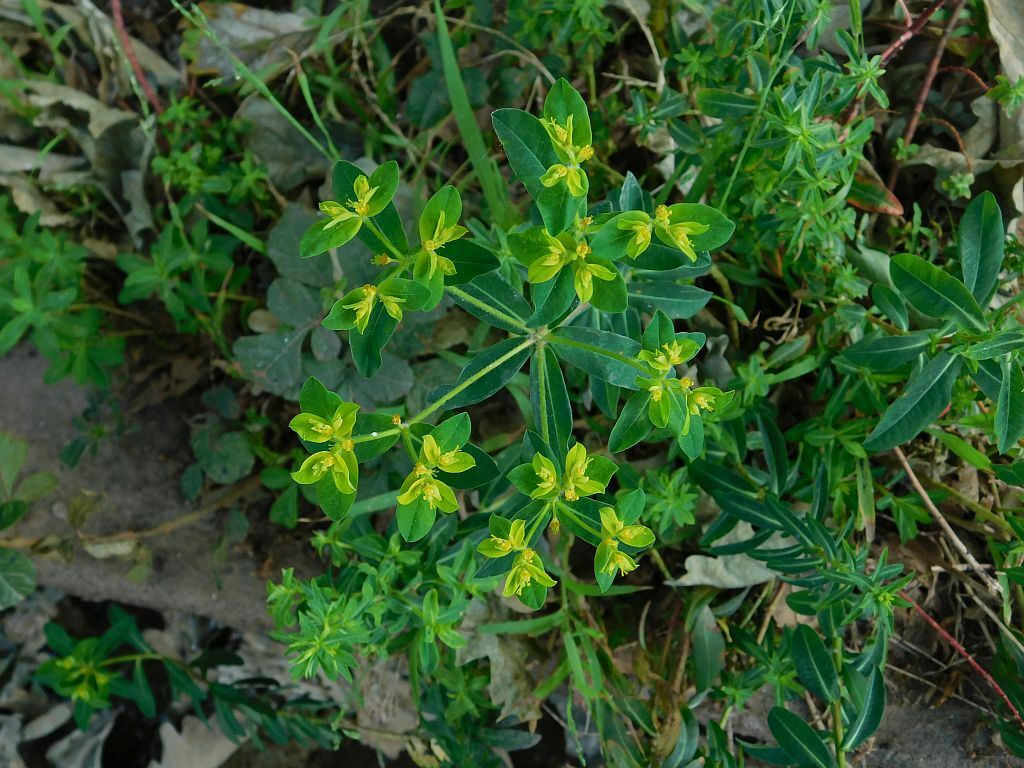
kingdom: Plantae
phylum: Tracheophyta
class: Magnoliopsida
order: Malpighiales
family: Euphorbiaceae
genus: Euphorbia
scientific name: Euphorbia oblongata
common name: Balkan spurge
